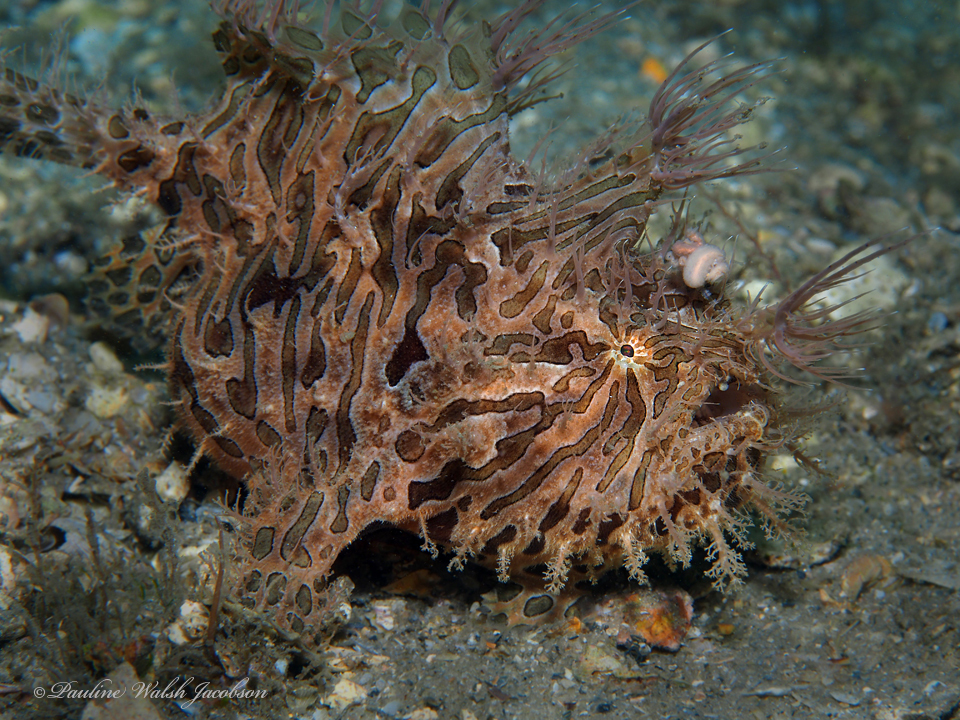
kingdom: Animalia
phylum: Chordata
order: Lophiiformes
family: Antennariidae
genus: Antennarius
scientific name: Antennarius striatus
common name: Striated frogfish
